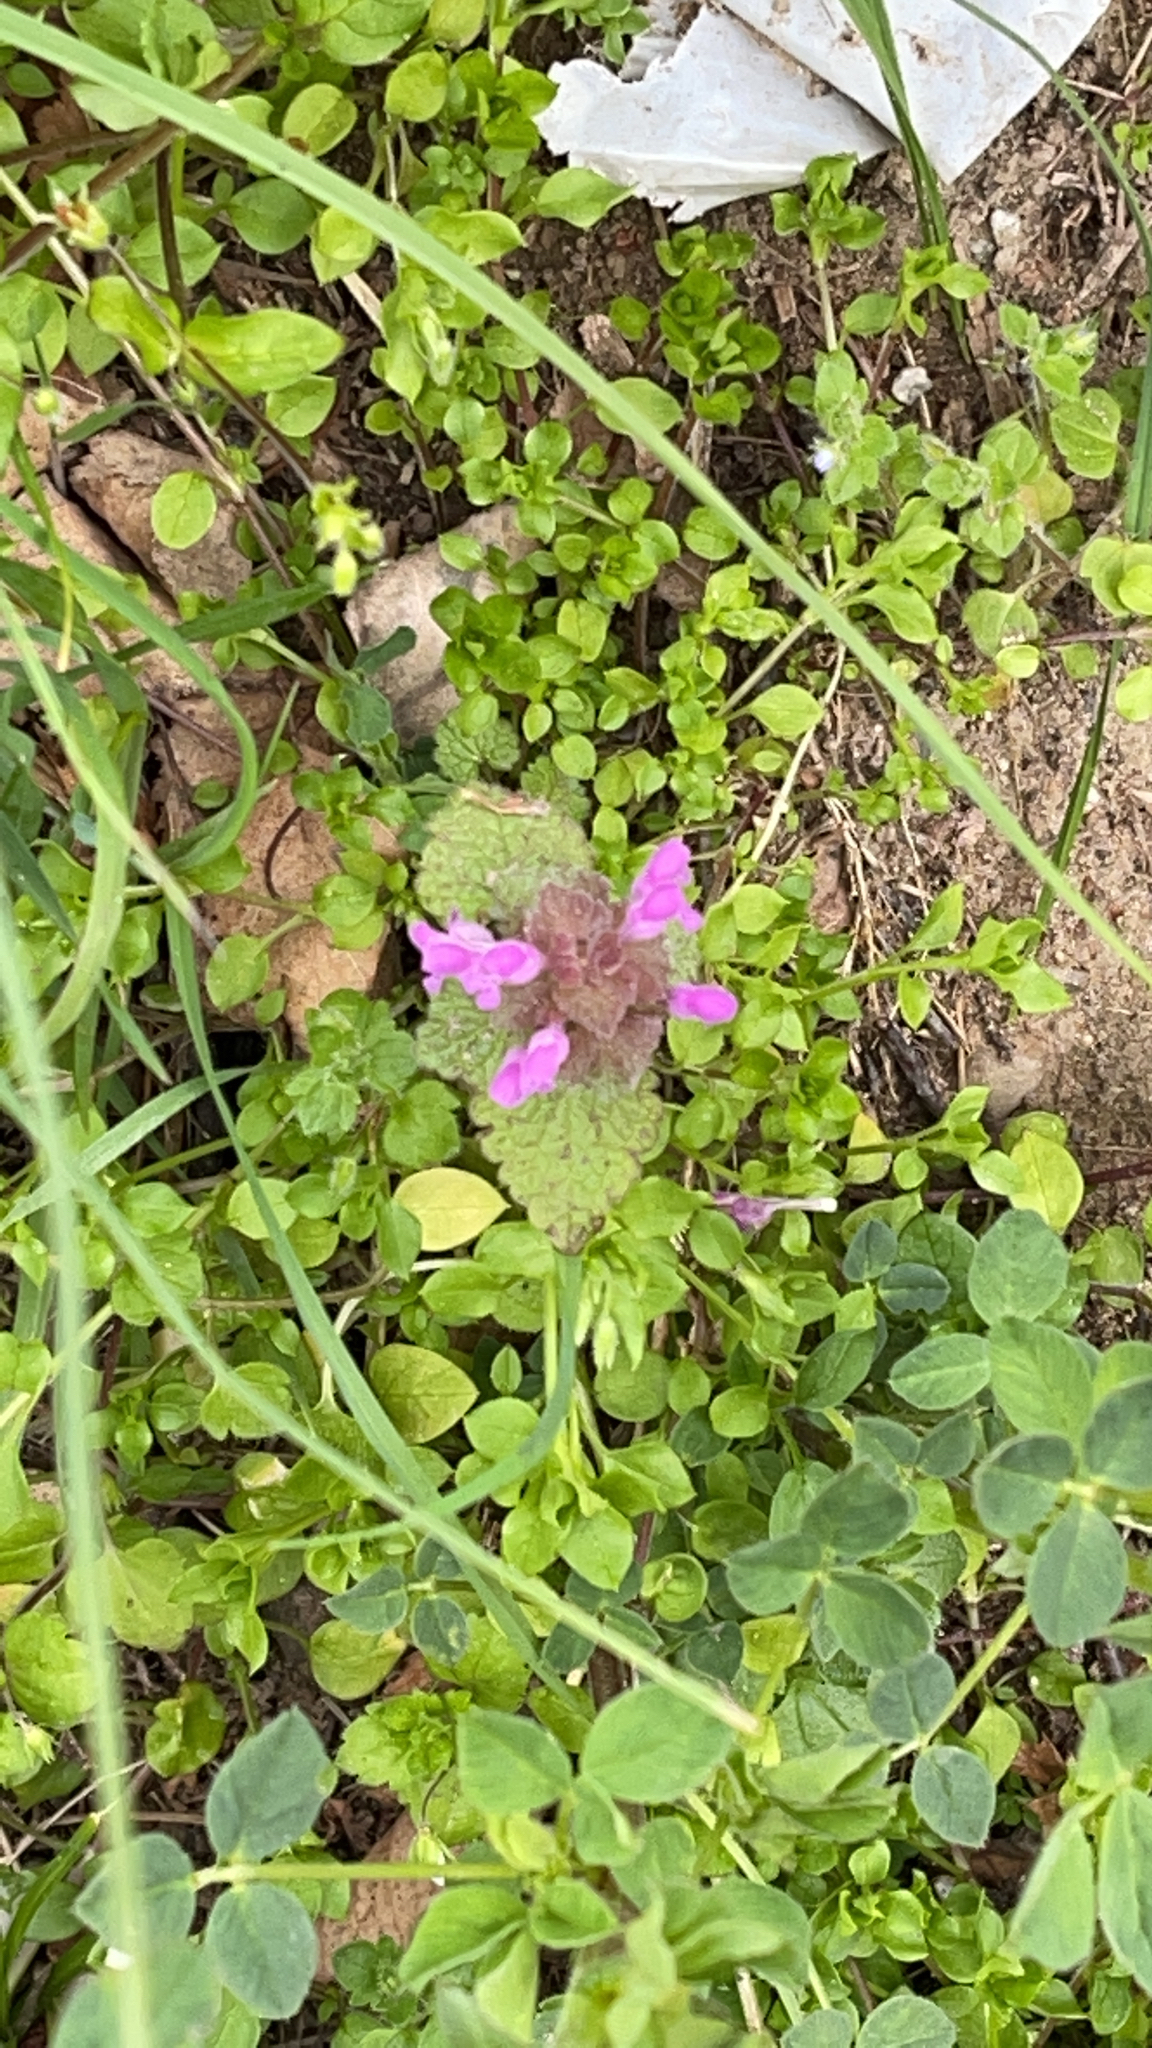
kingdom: Plantae
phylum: Tracheophyta
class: Magnoliopsida
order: Lamiales
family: Lamiaceae
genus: Lamium
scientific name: Lamium purpureum
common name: Red dead-nettle
